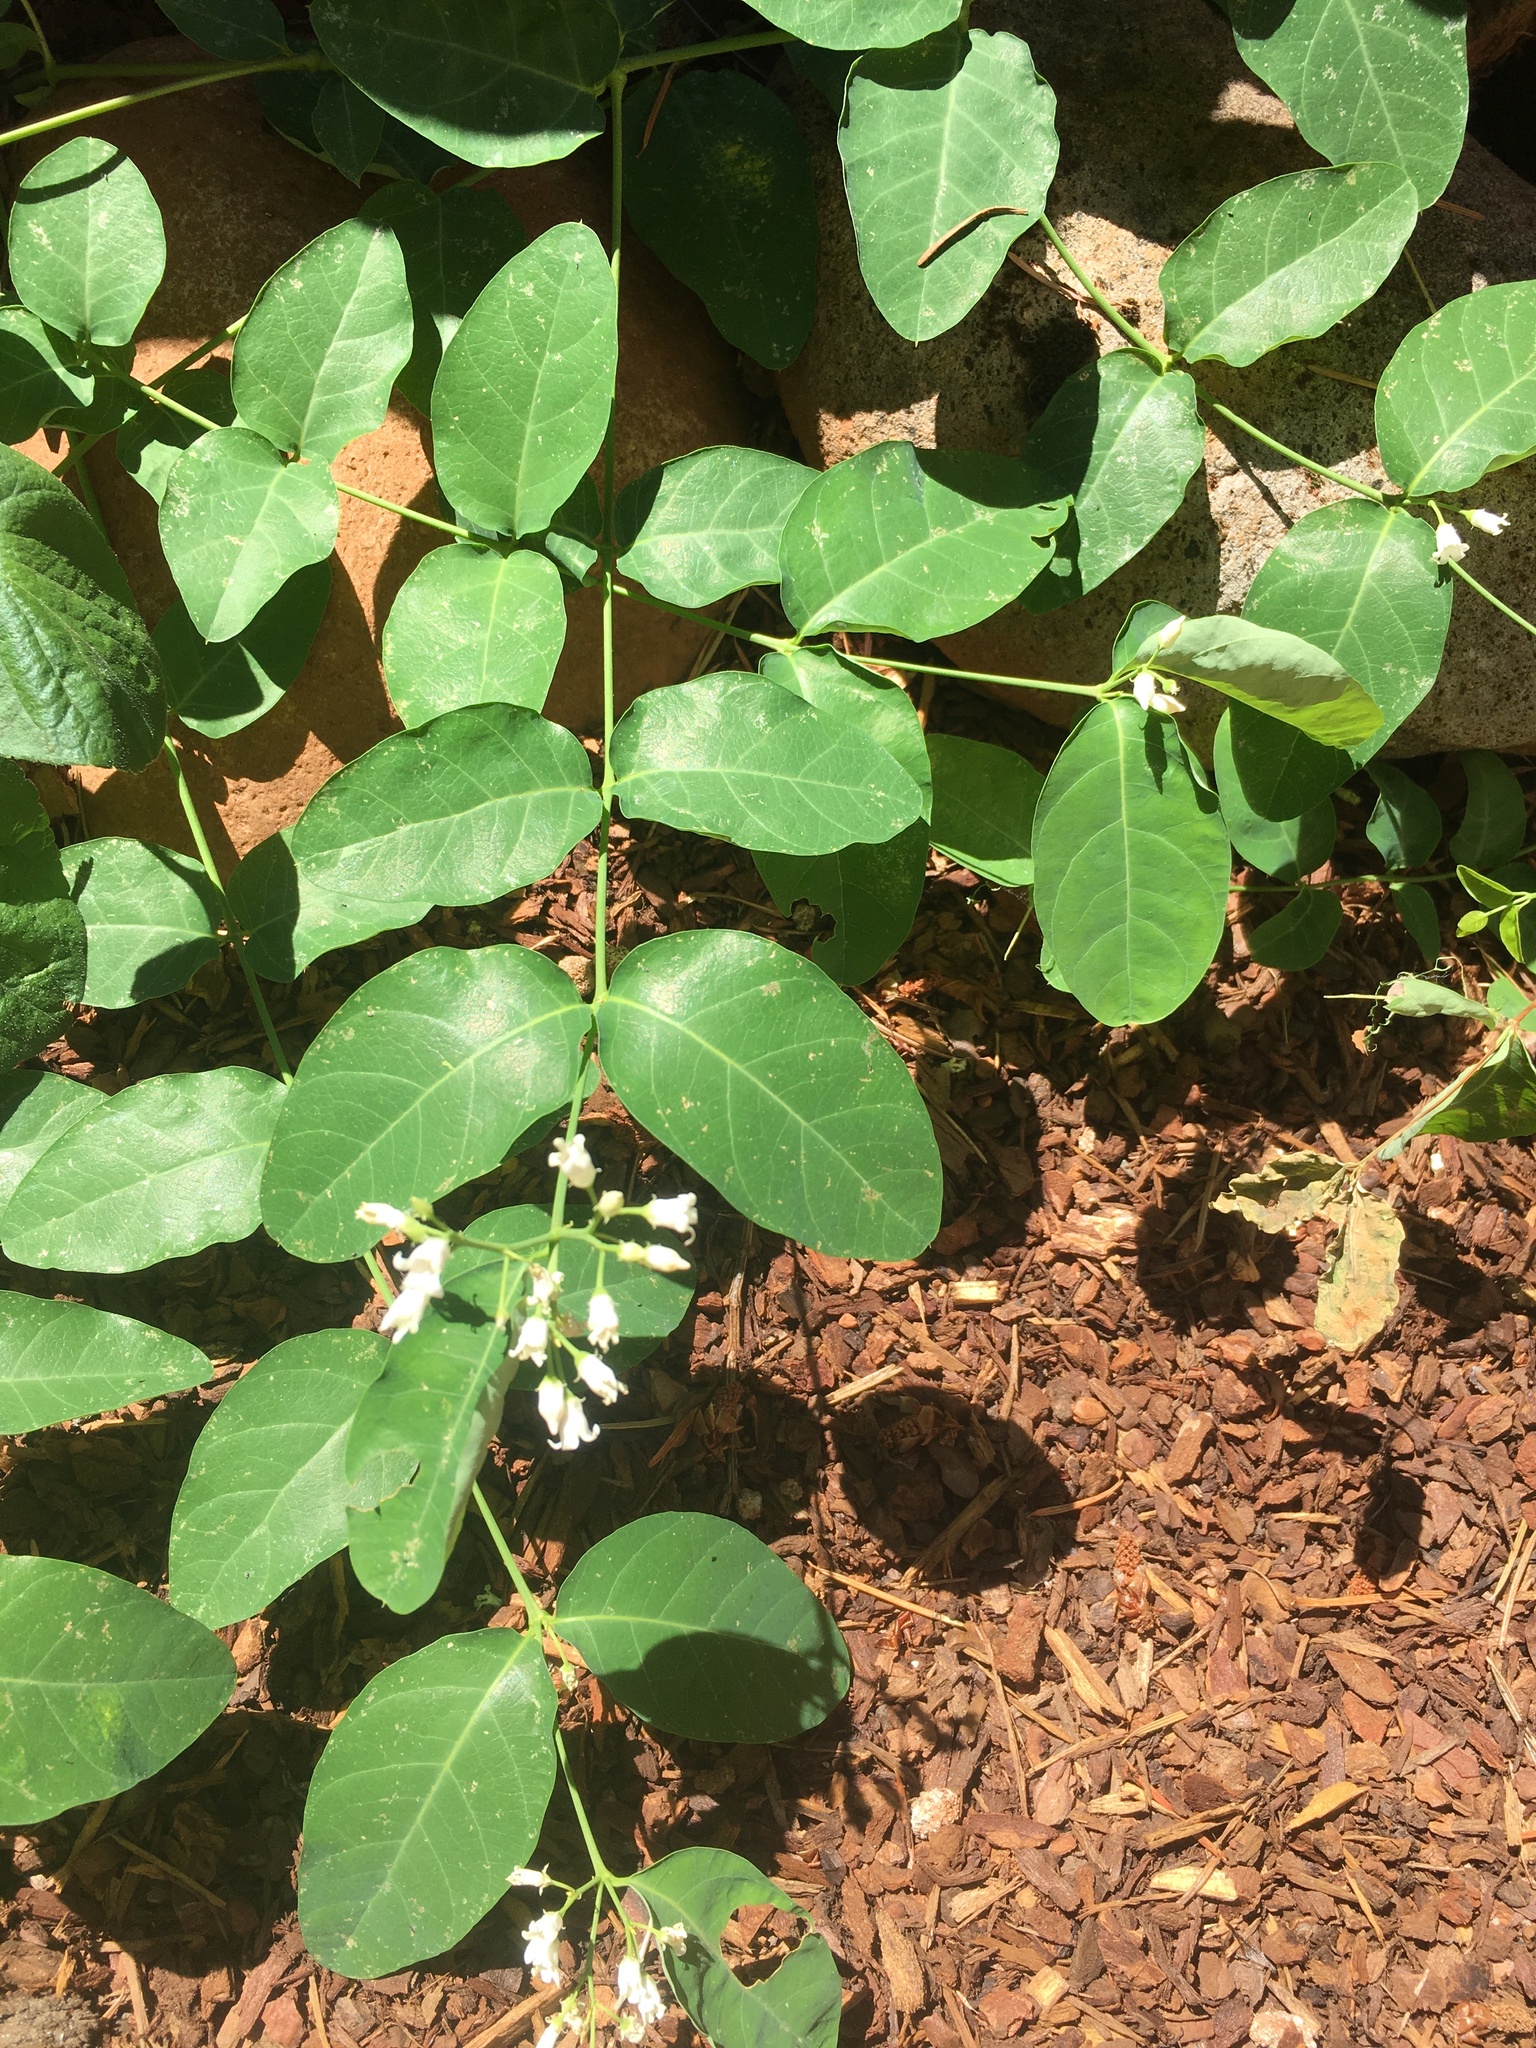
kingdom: Plantae
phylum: Tracheophyta
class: Magnoliopsida
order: Gentianales
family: Apocynaceae
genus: Apocynum
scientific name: Apocynum androsaemifolium
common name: Spreading dogbane
